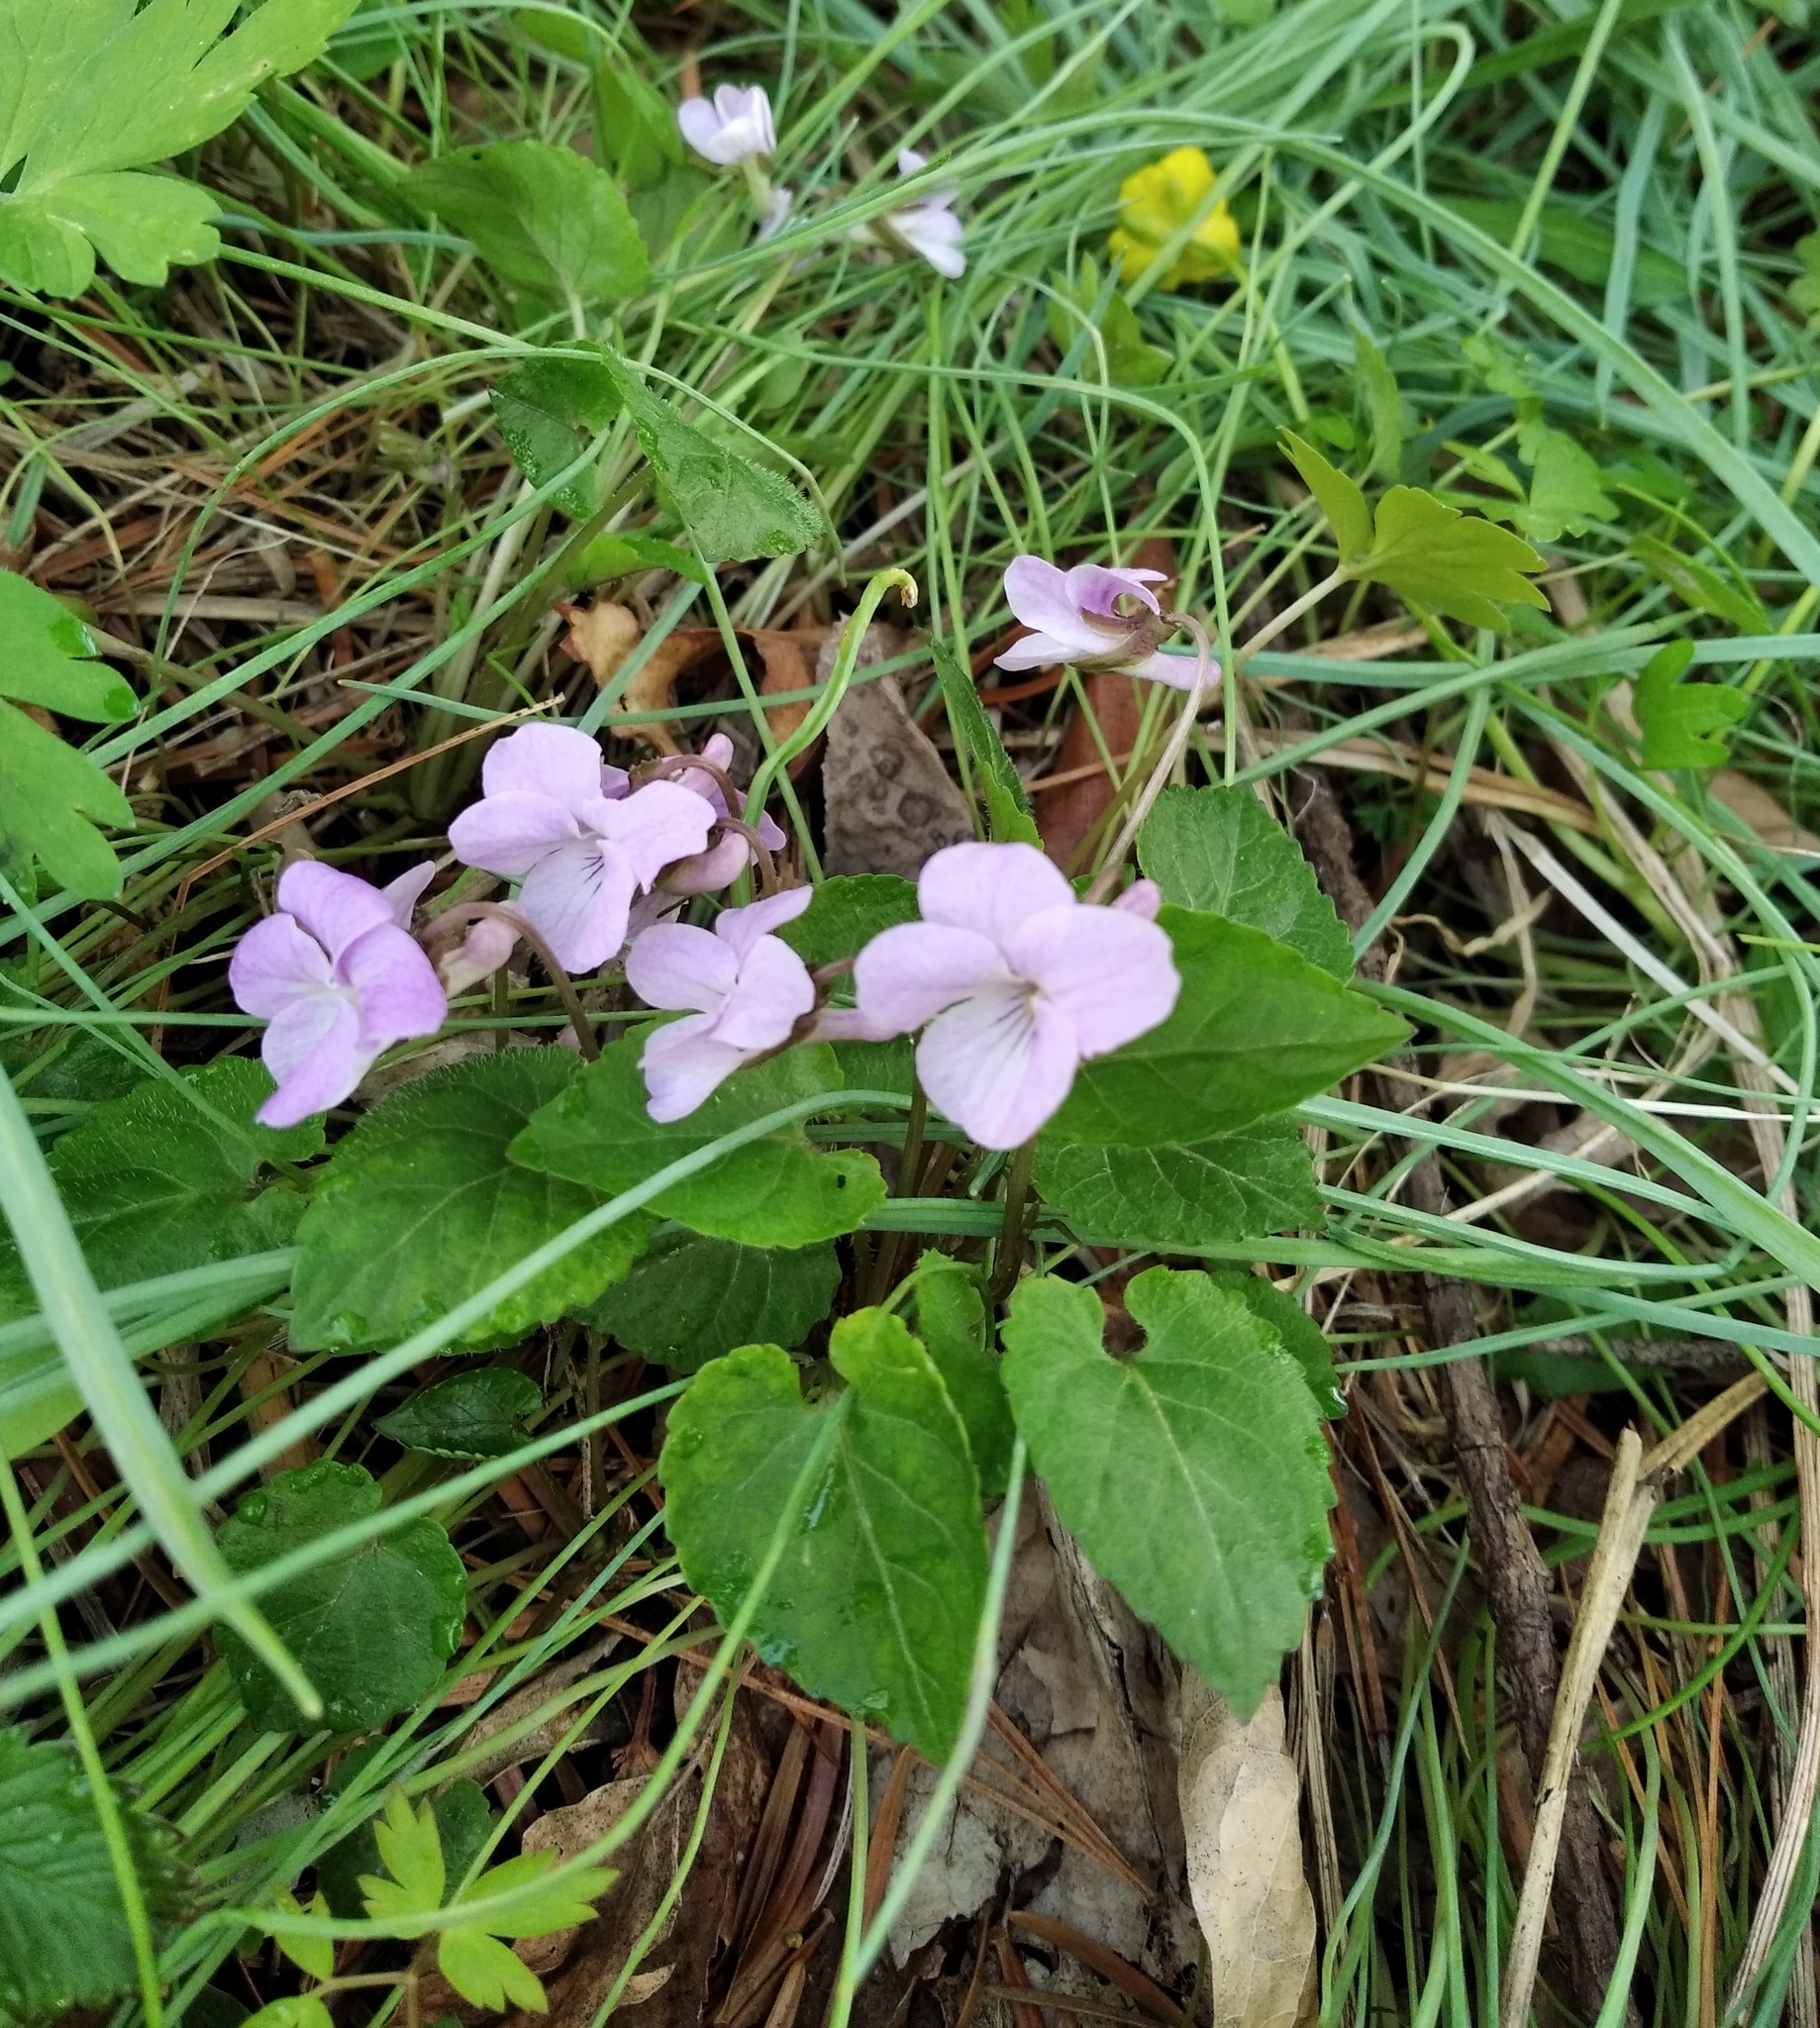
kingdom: Plantae
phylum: Tracheophyta
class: Magnoliopsida
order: Malpighiales
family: Violaceae
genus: Viola
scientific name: Viola selkirkii
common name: Selkirk's violet
